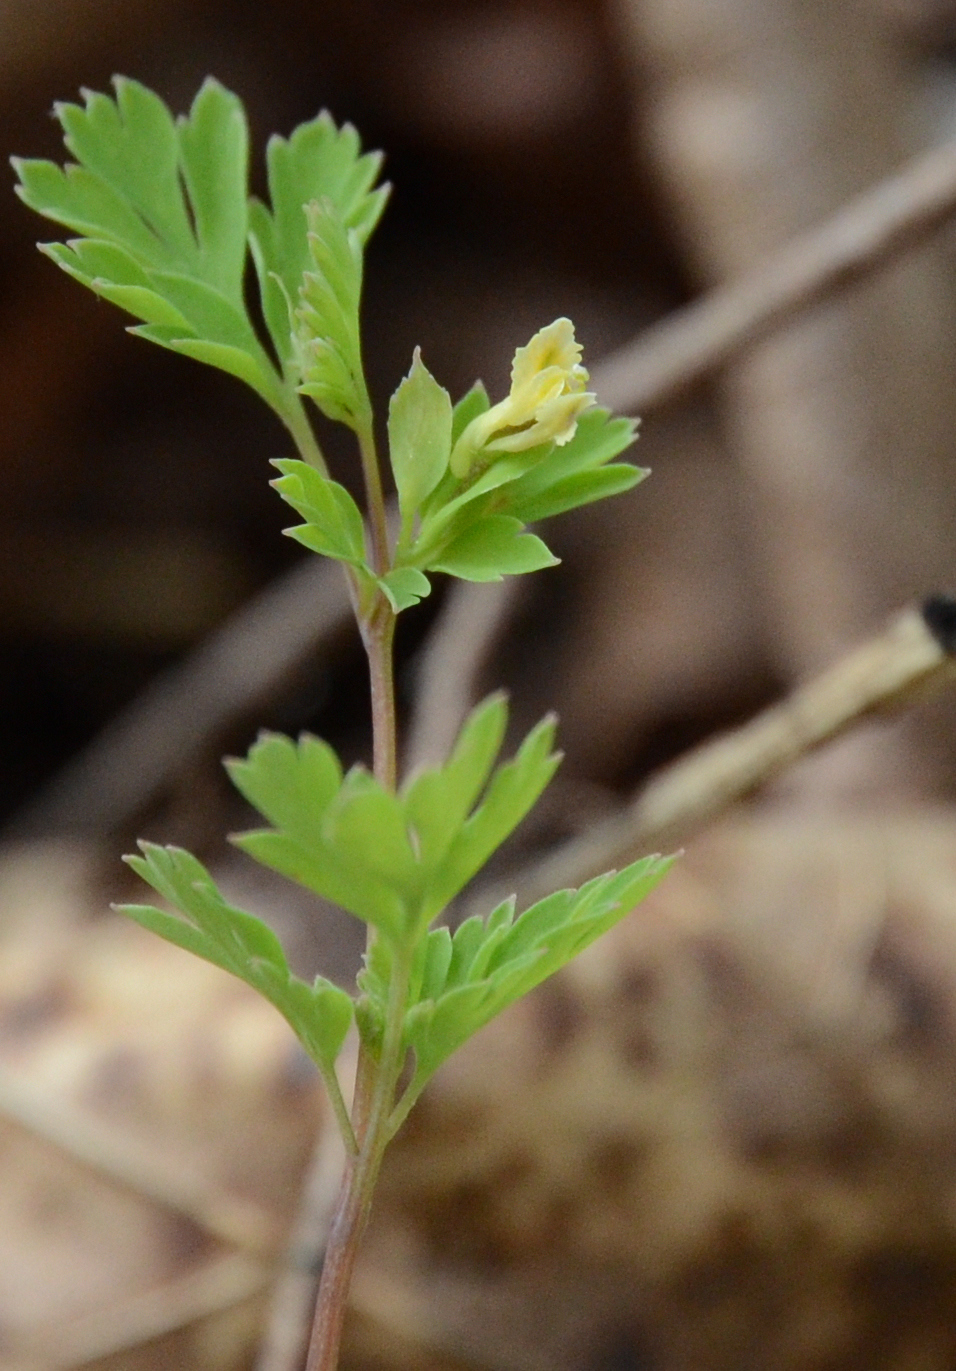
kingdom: Plantae
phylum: Tracheophyta
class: Magnoliopsida
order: Ranunculales
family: Papaveraceae
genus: Corydalis
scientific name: Corydalis flavula
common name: Yellow corydalis
